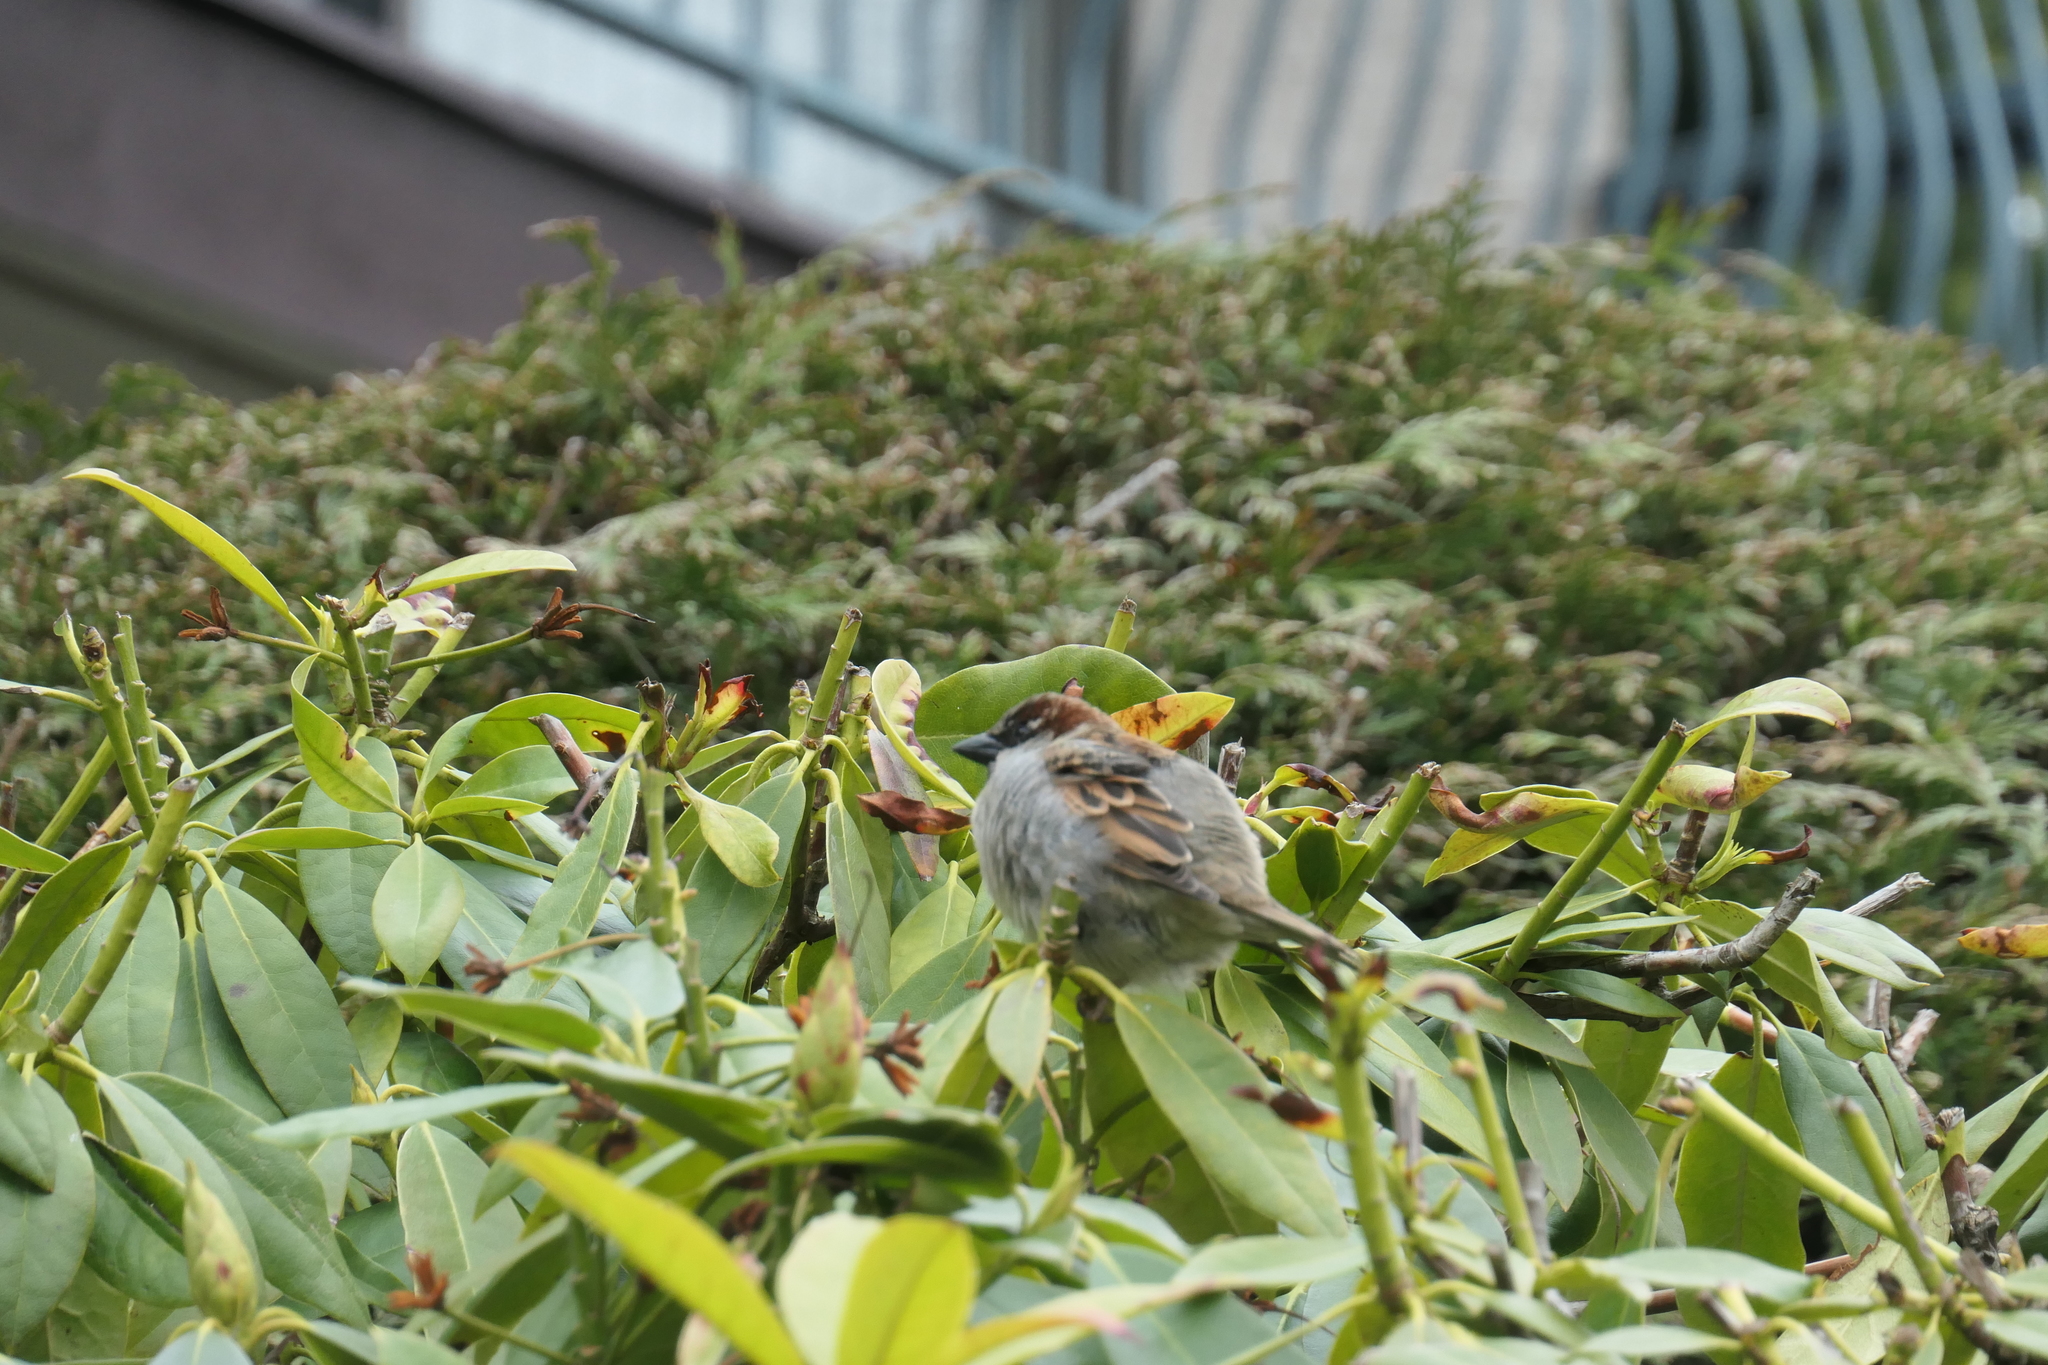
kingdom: Animalia
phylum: Chordata
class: Aves
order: Passeriformes
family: Passeridae
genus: Passer
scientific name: Passer domesticus
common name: House sparrow
